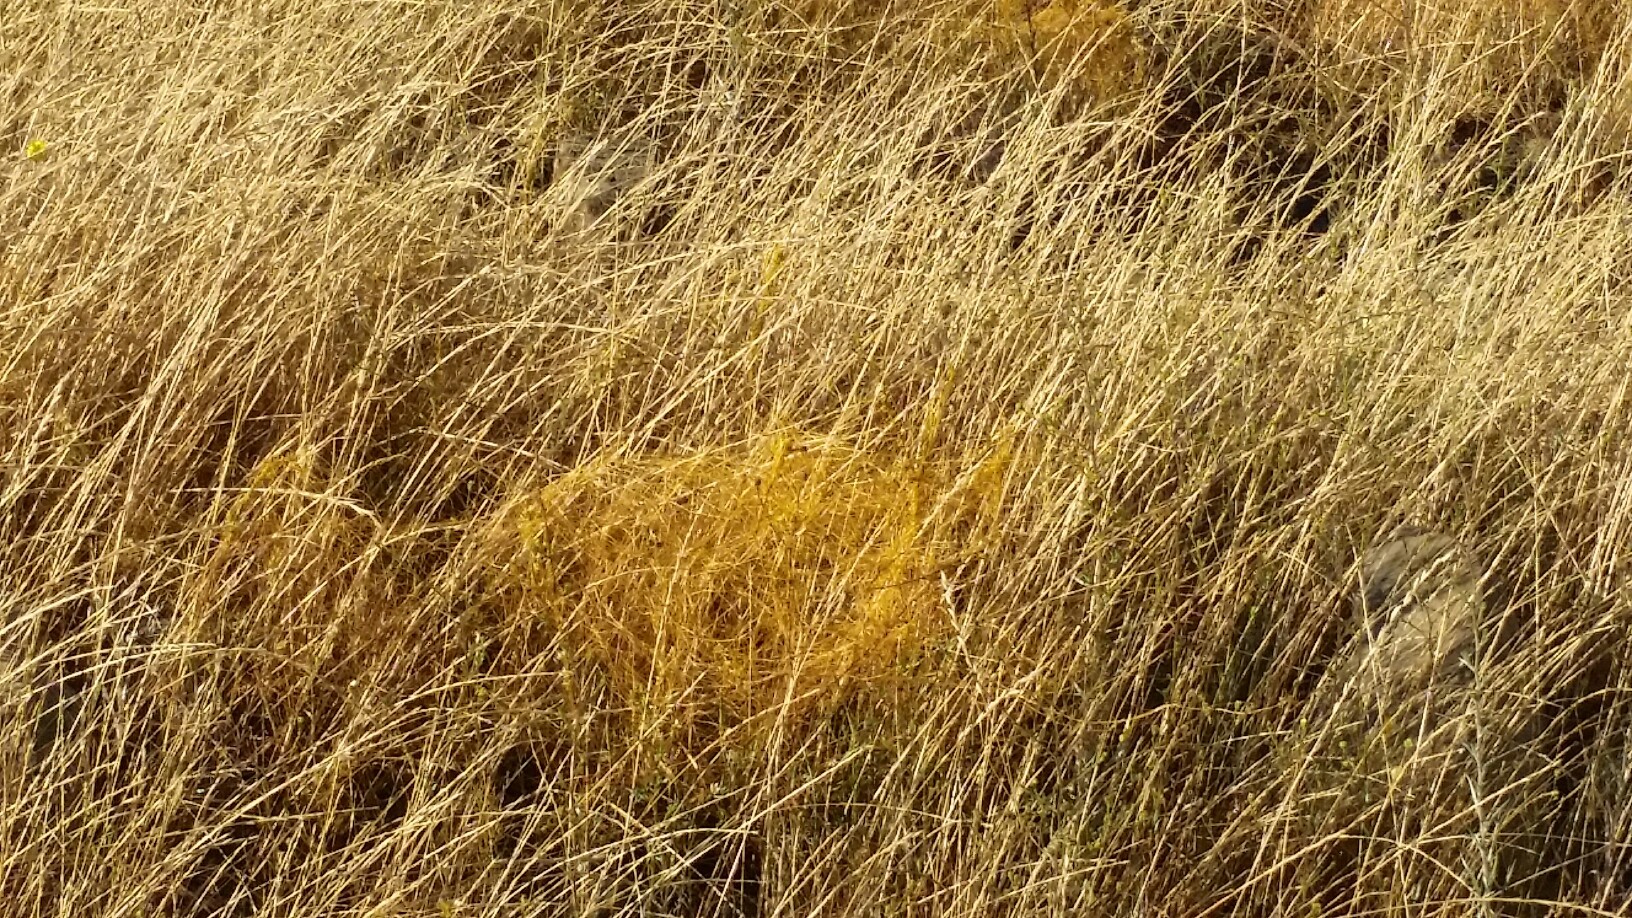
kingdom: Plantae
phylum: Tracheophyta
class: Magnoliopsida
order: Solanales
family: Convolvulaceae
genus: Cuscuta
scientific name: Cuscuta californica
